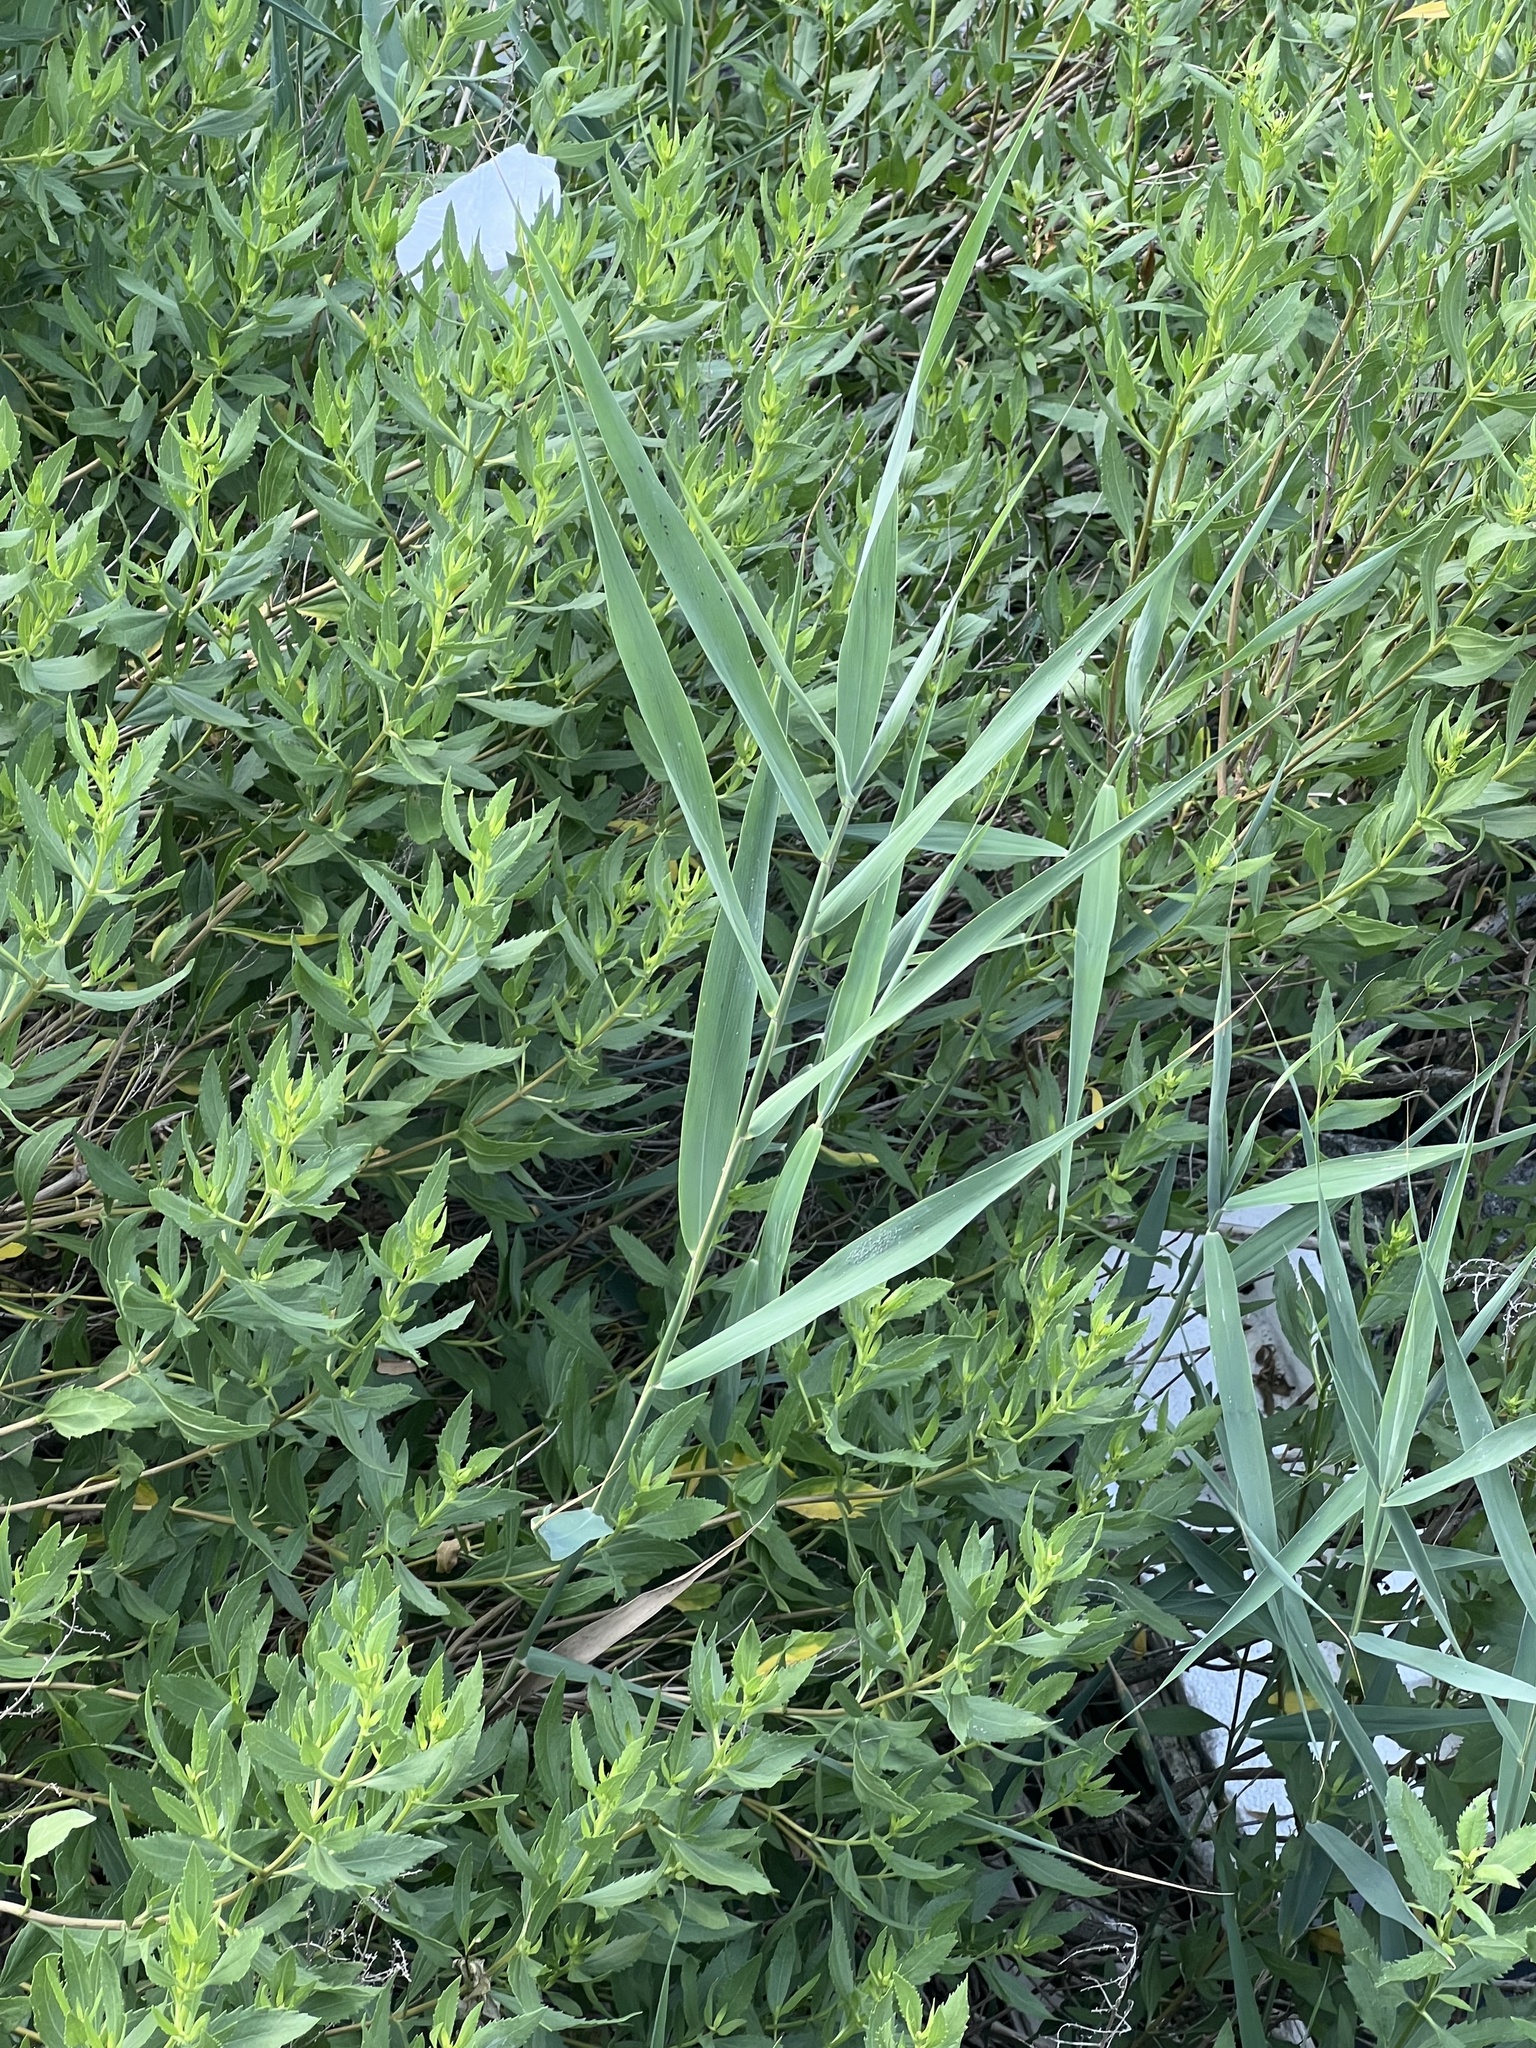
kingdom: Plantae
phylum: Tracheophyta
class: Liliopsida
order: Poales
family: Poaceae
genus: Phragmites
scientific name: Phragmites australis
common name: Common reed
